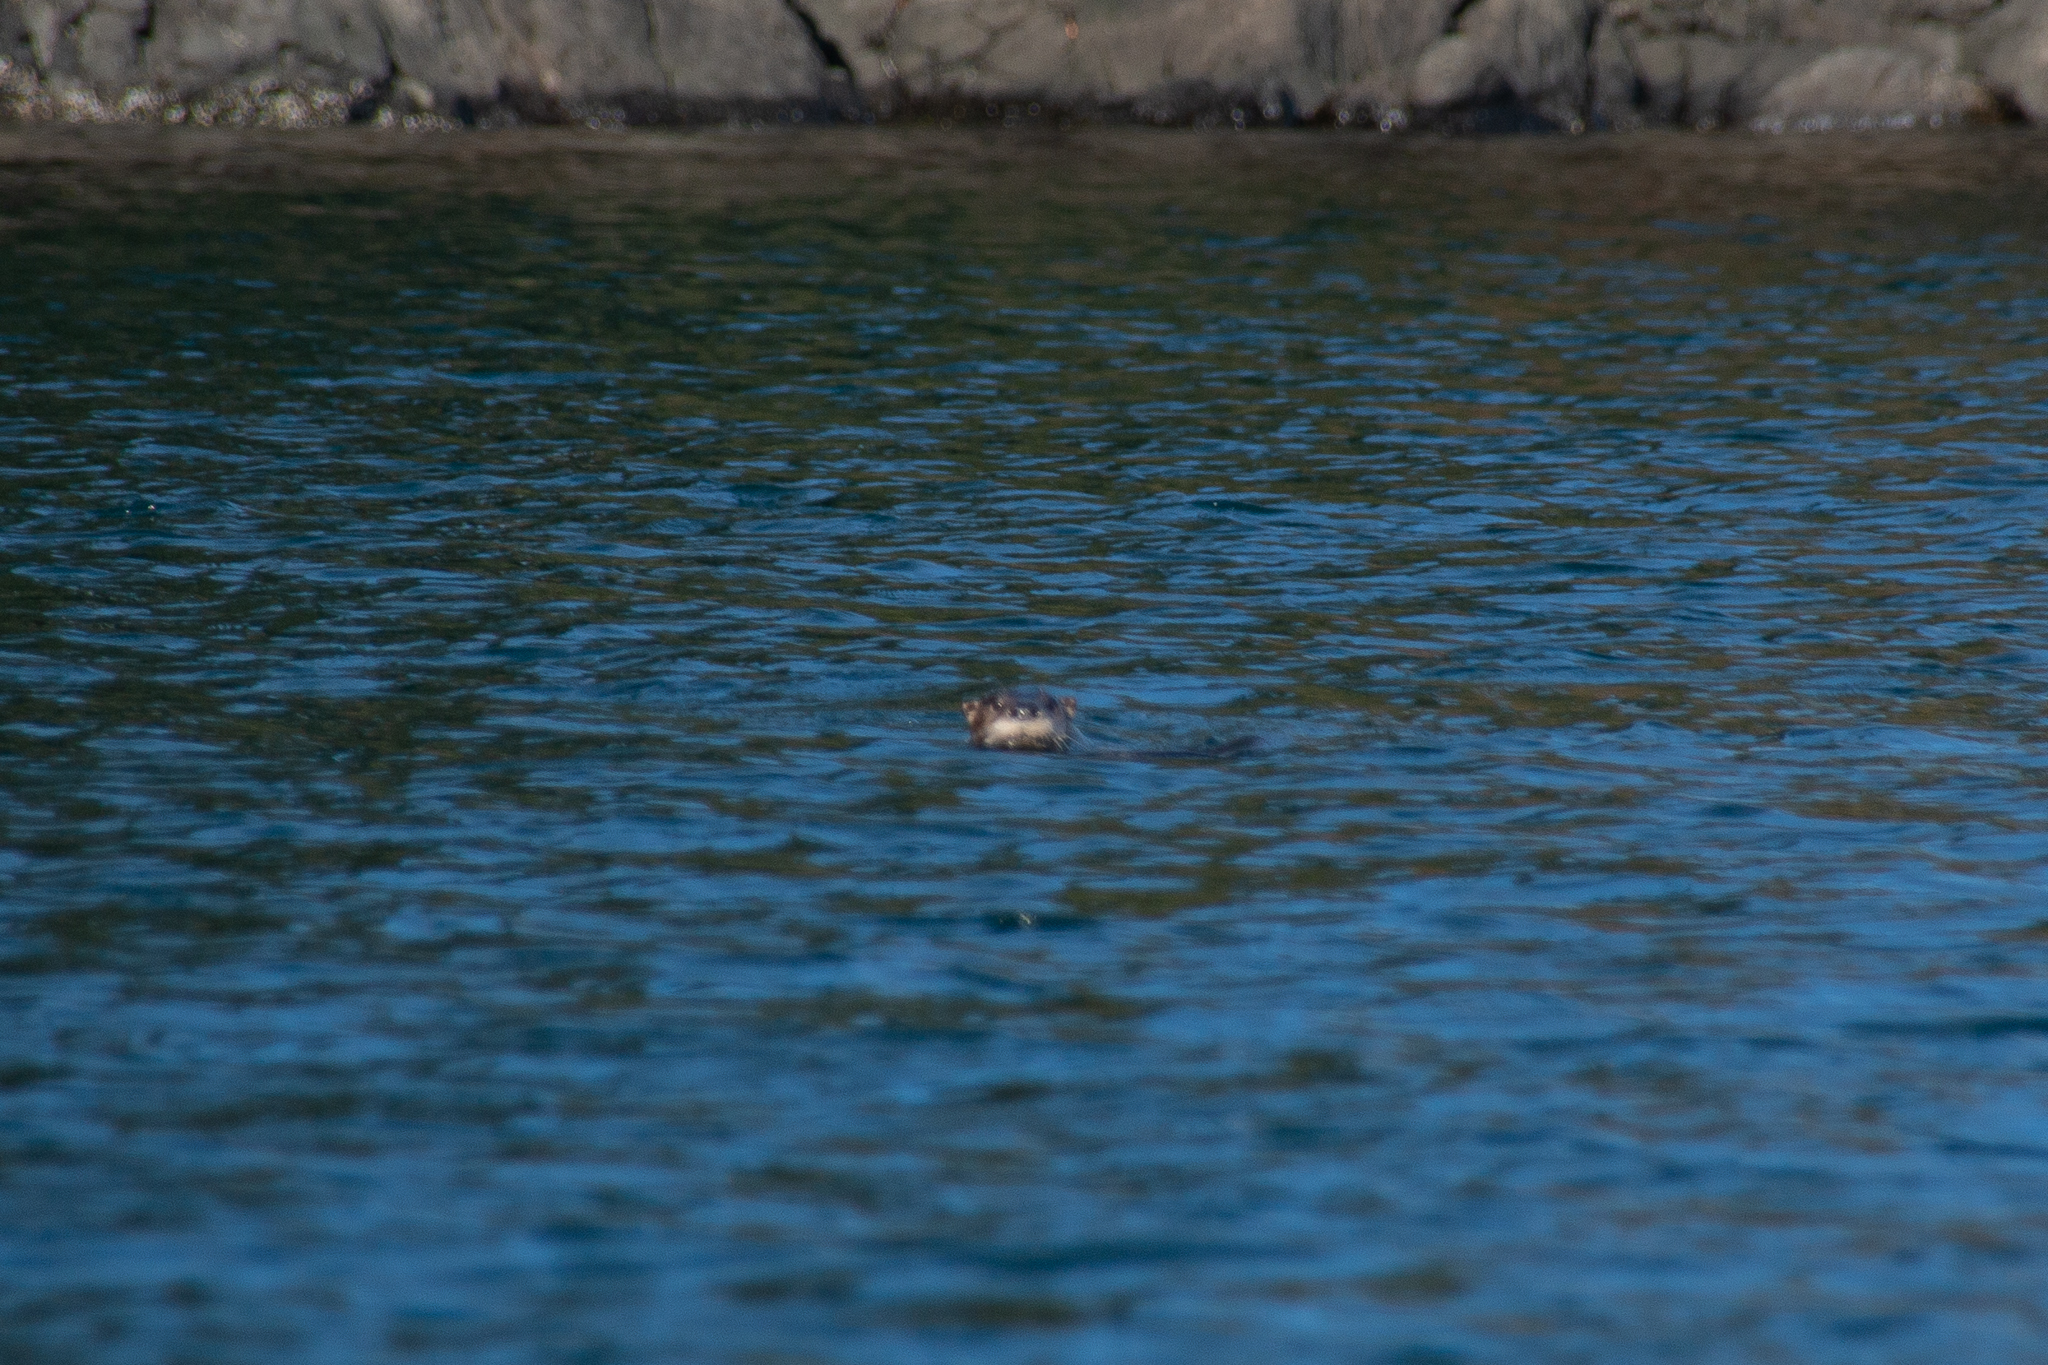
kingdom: Animalia
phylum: Chordata
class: Mammalia
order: Carnivora
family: Phocidae
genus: Phoca
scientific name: Phoca vitulina
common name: Harbor seal
